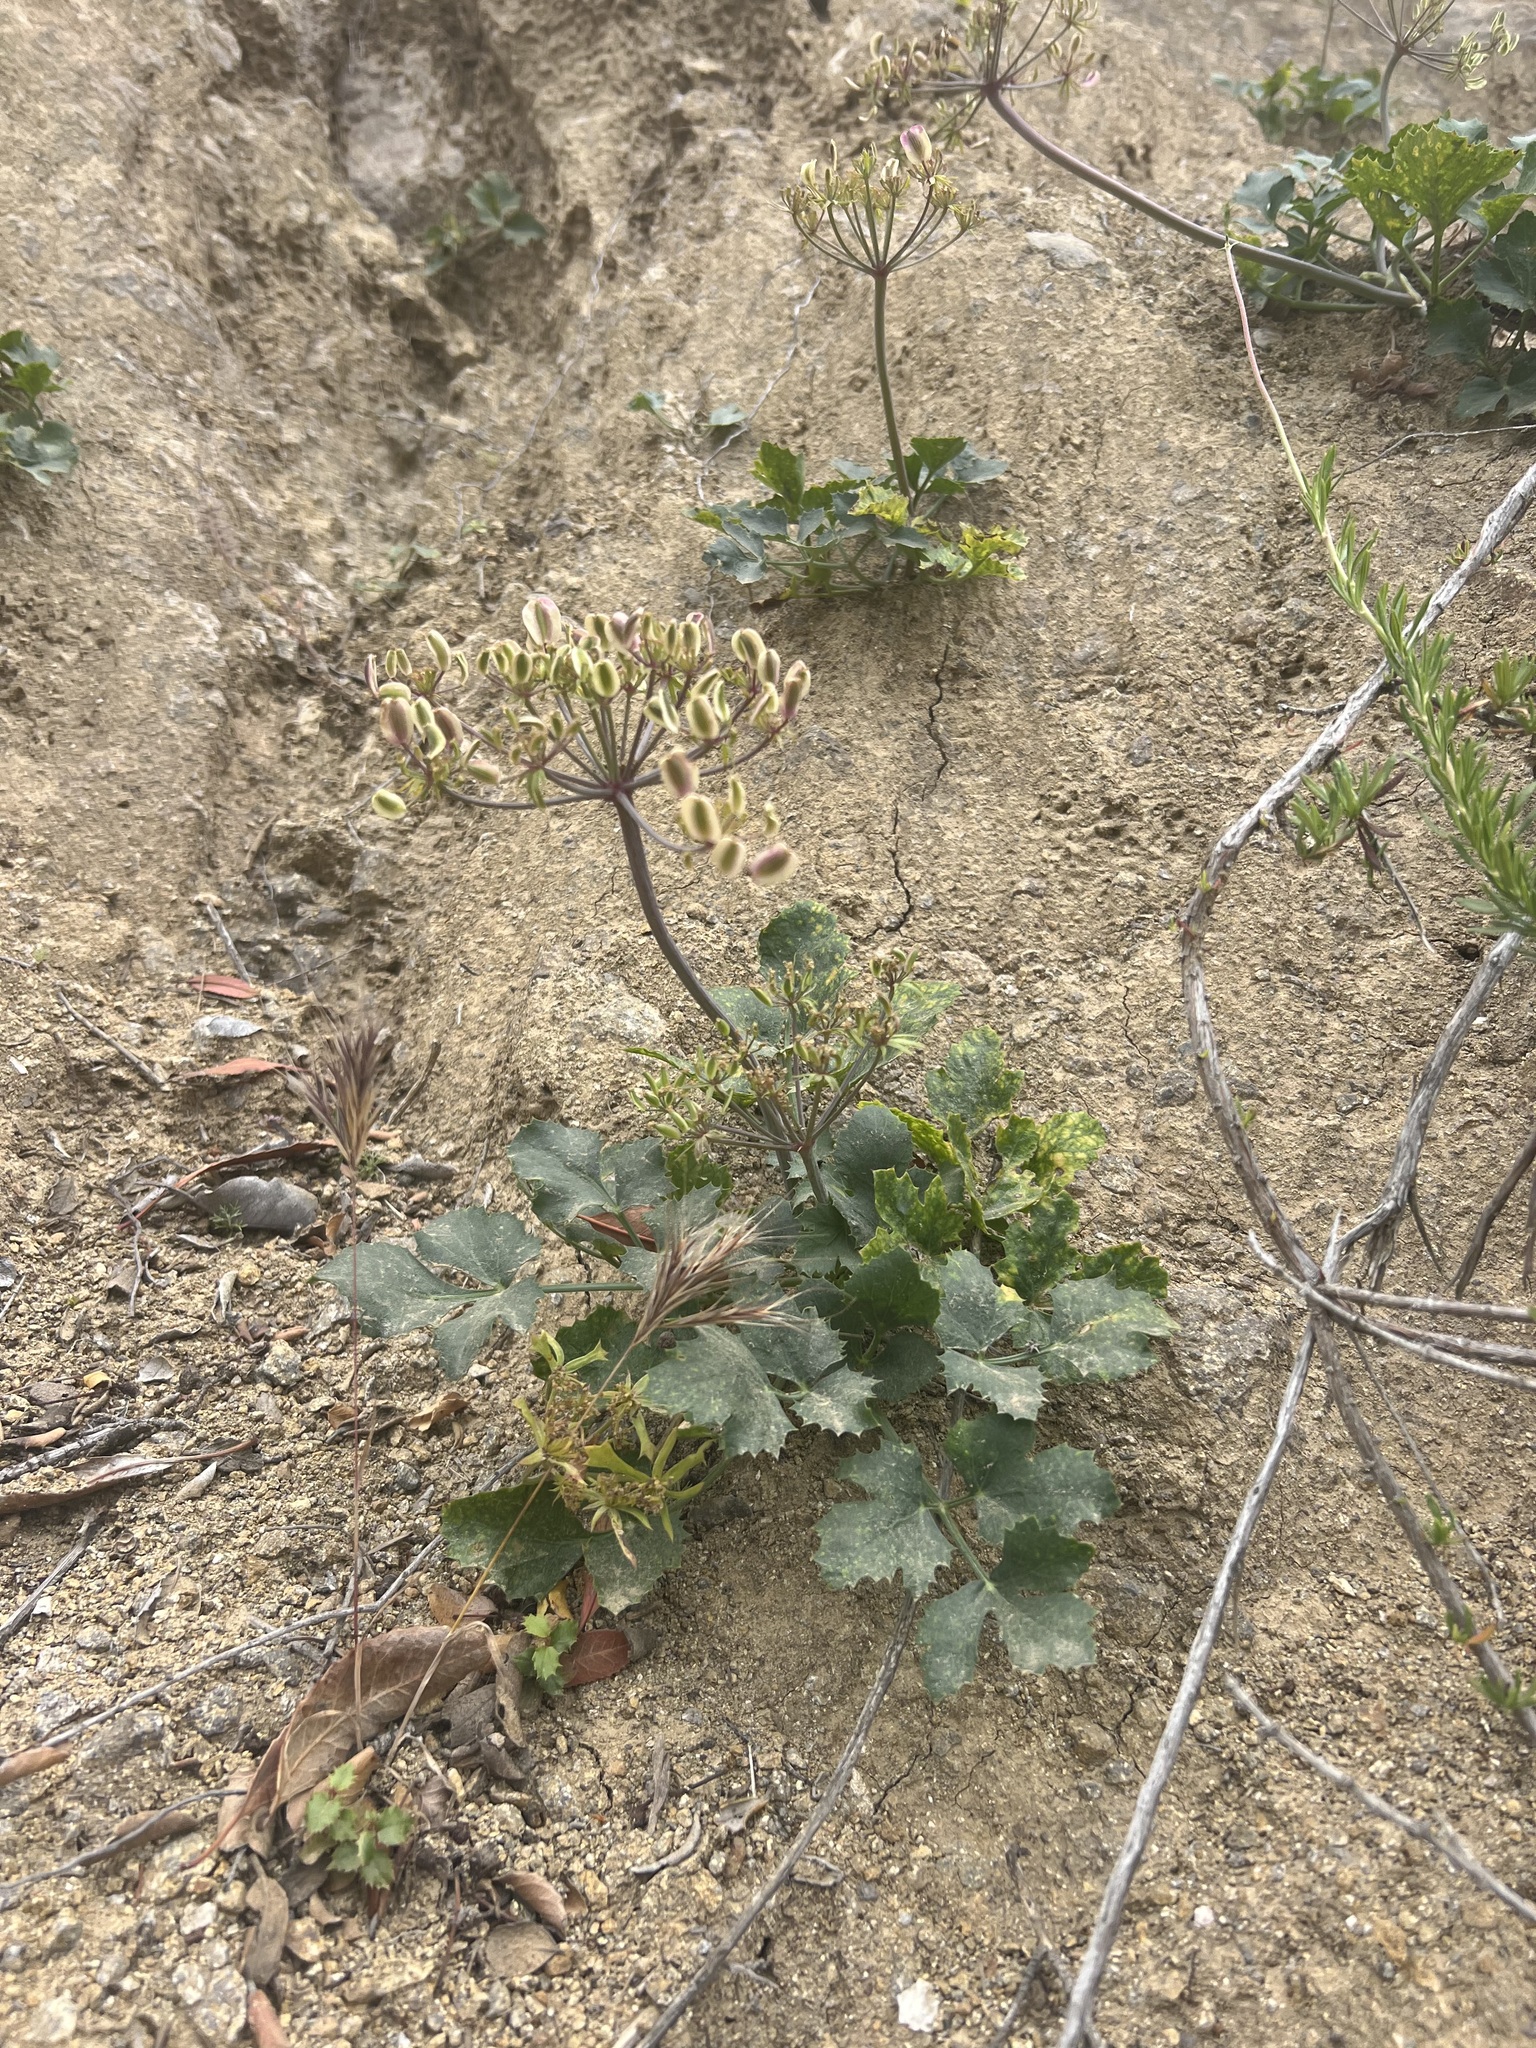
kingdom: Plantae
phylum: Tracheophyta
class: Magnoliopsida
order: Apiales
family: Apiaceae
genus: Lomatium
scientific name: Lomatium lucidum
